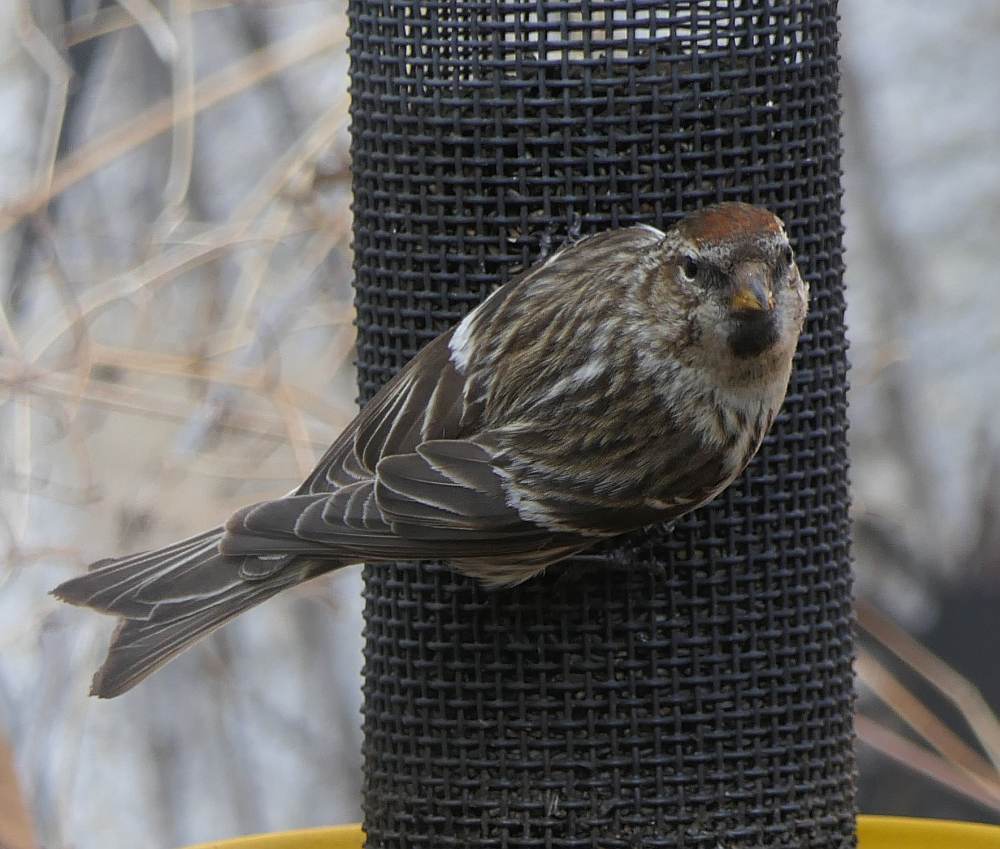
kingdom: Animalia
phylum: Chordata
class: Aves
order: Passeriformes
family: Fringillidae
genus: Acanthis
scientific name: Acanthis flammea
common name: Common redpoll
